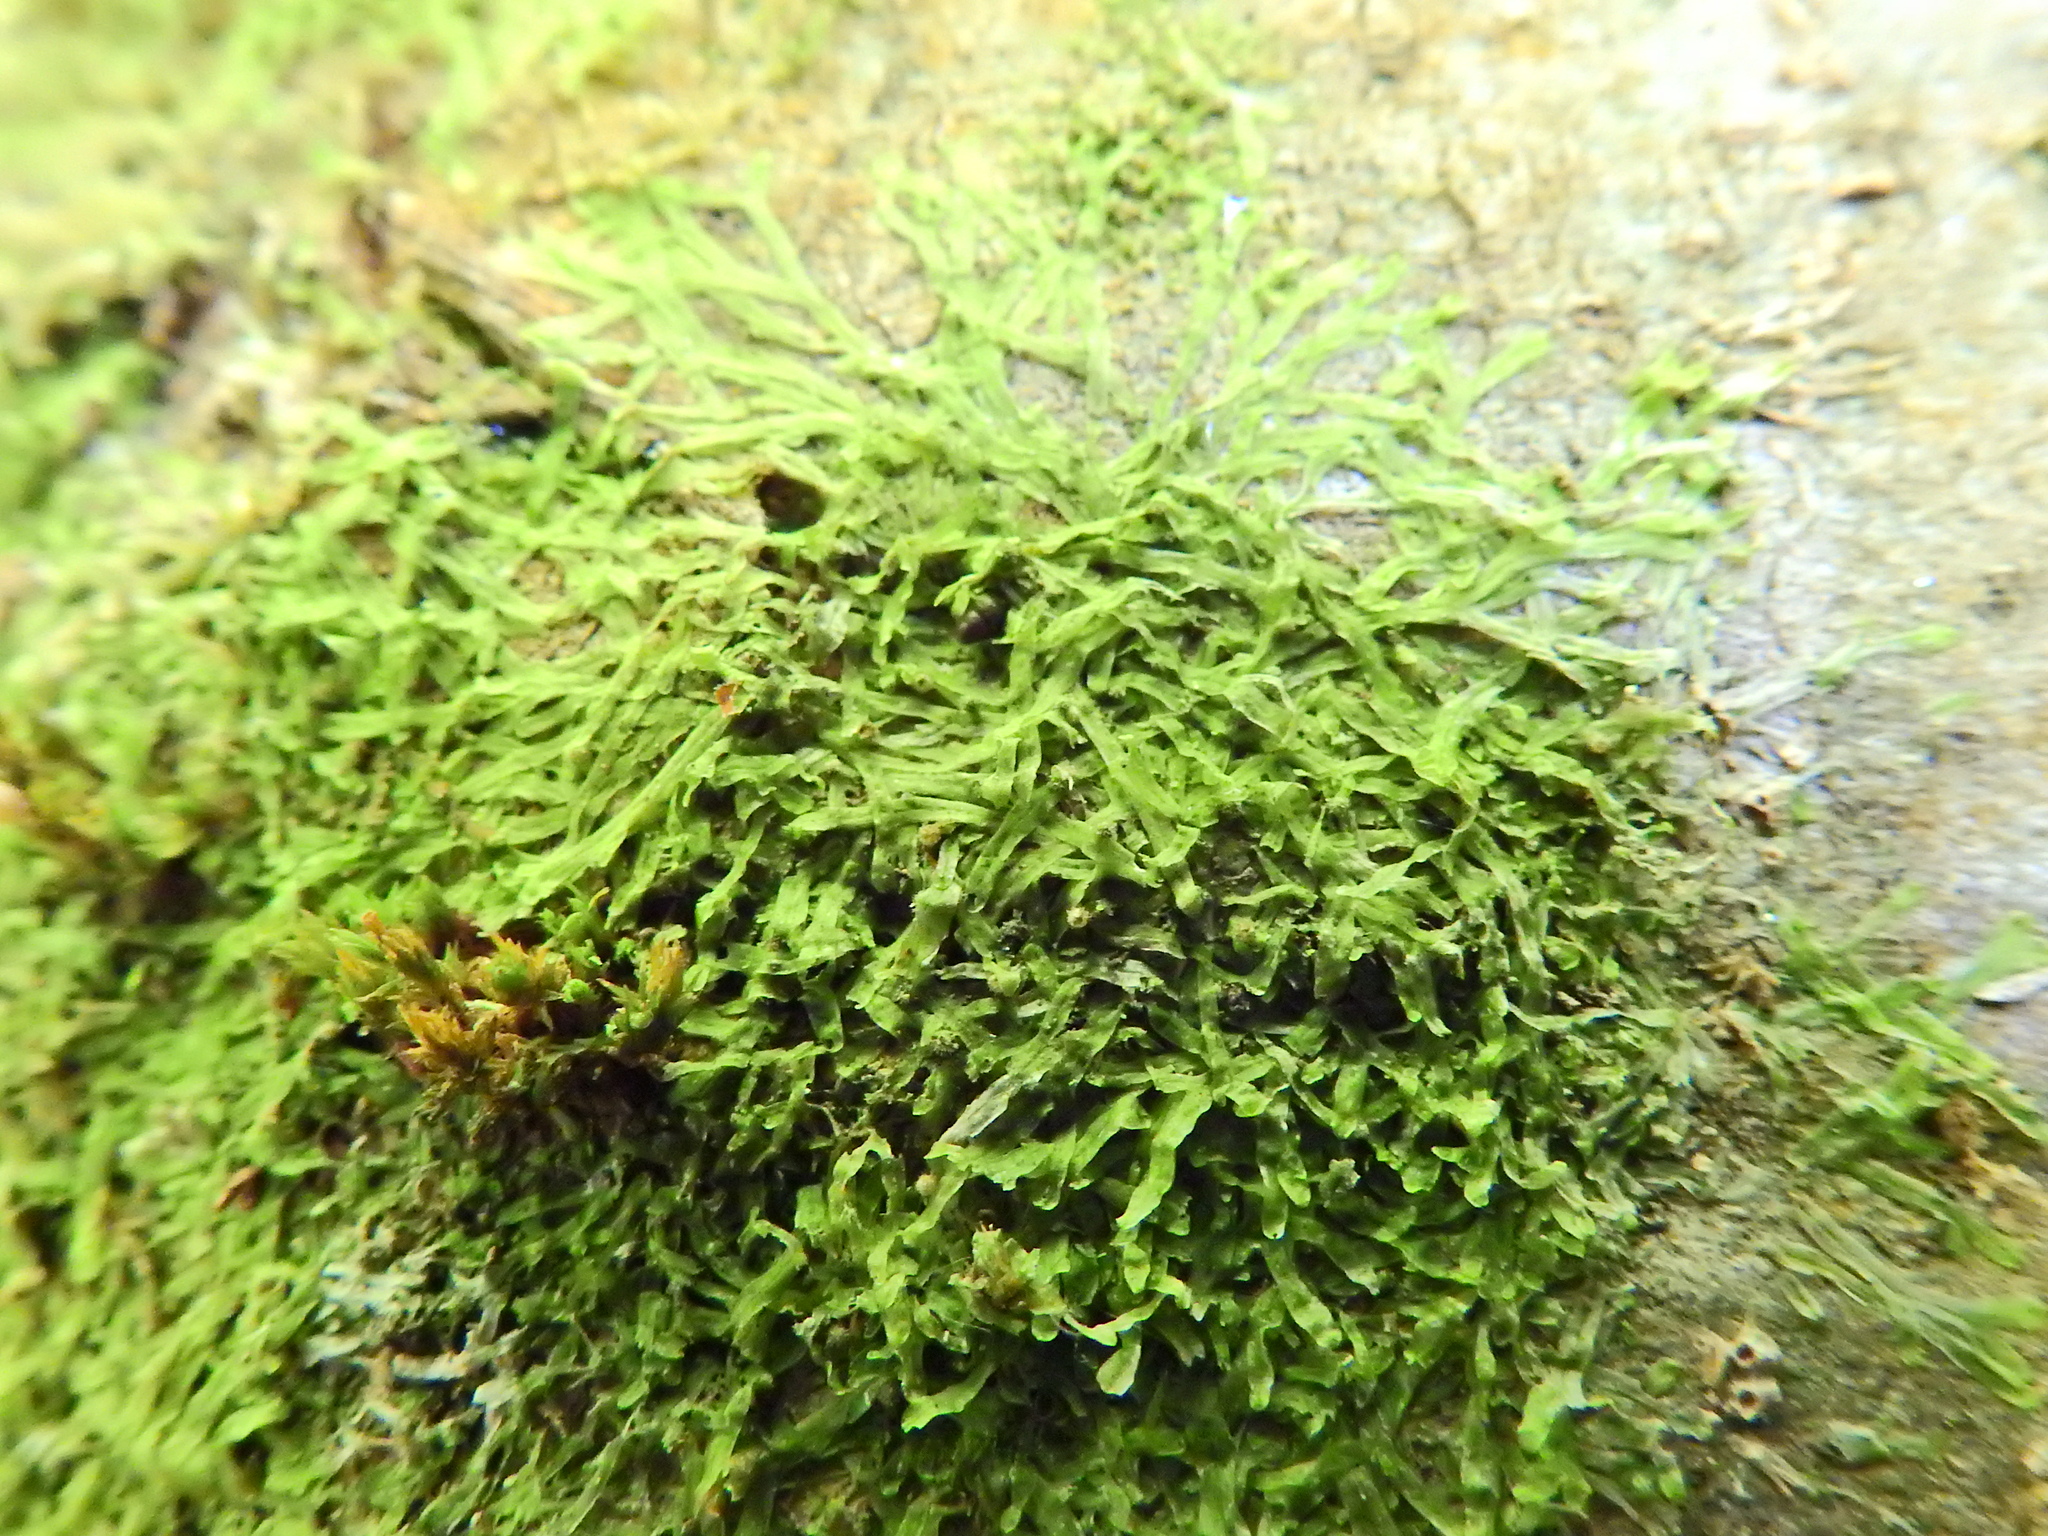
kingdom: Plantae
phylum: Marchantiophyta
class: Jungermanniopsida
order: Metzgeriales
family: Metzgeriaceae
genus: Metzgeria
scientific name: Metzgeria furcata
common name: Forked veilwort
